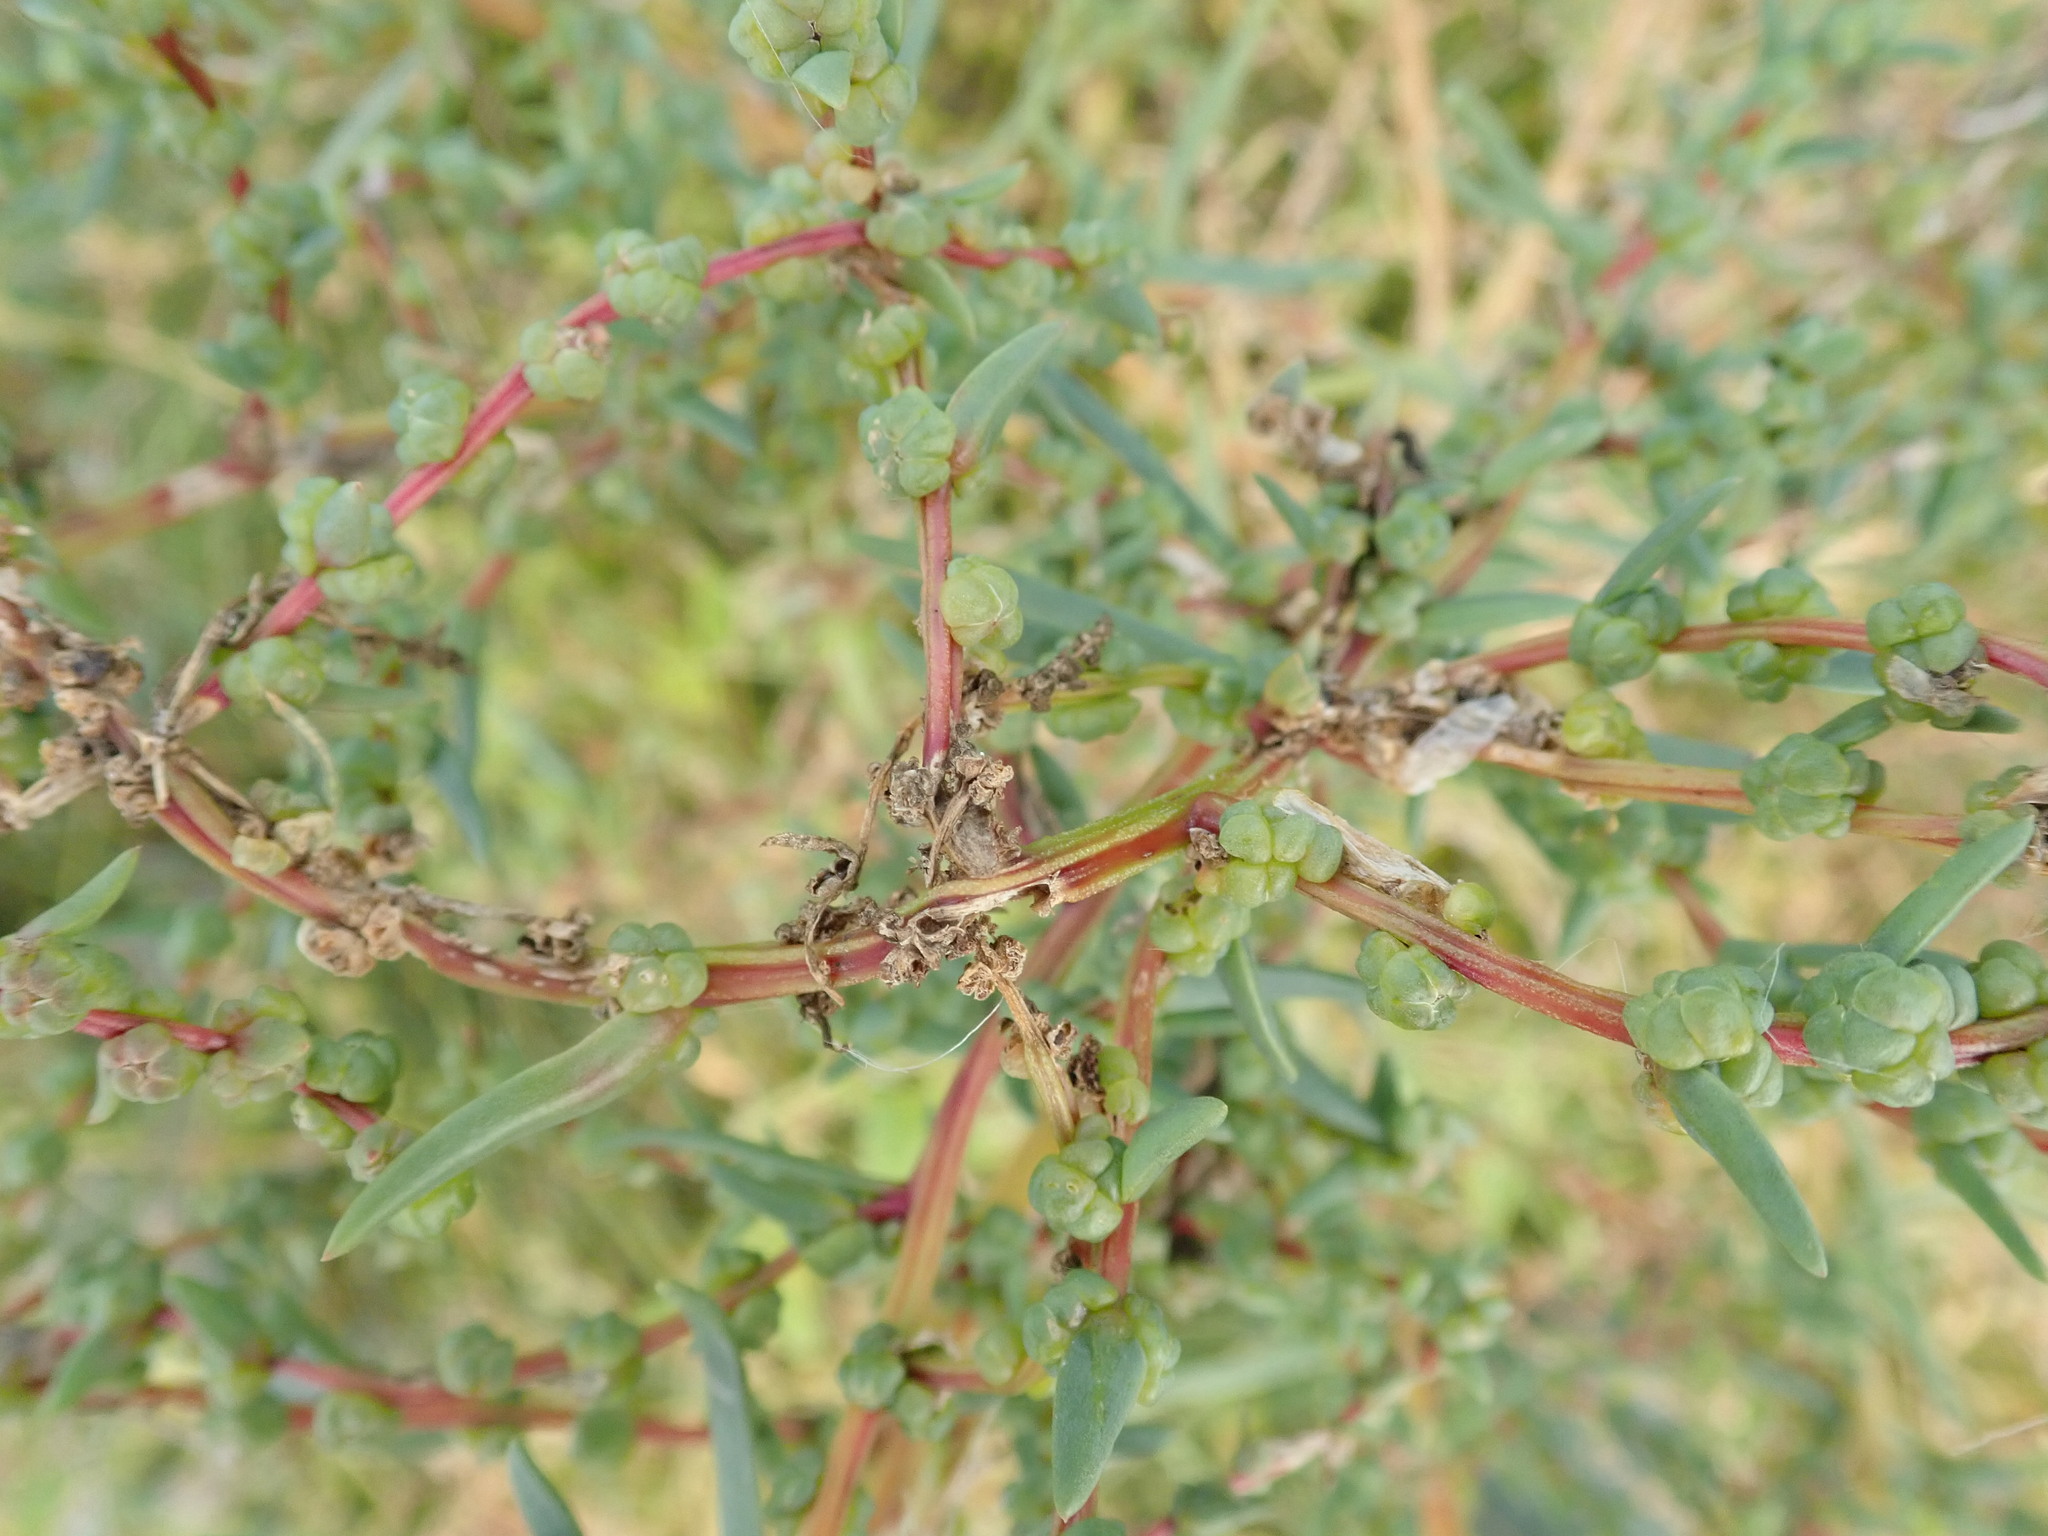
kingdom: Plantae
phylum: Tracheophyta
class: Magnoliopsida
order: Caryophyllales
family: Amaranthaceae
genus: Suaeda
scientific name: Suaeda maritima
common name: Annual sea-blite
